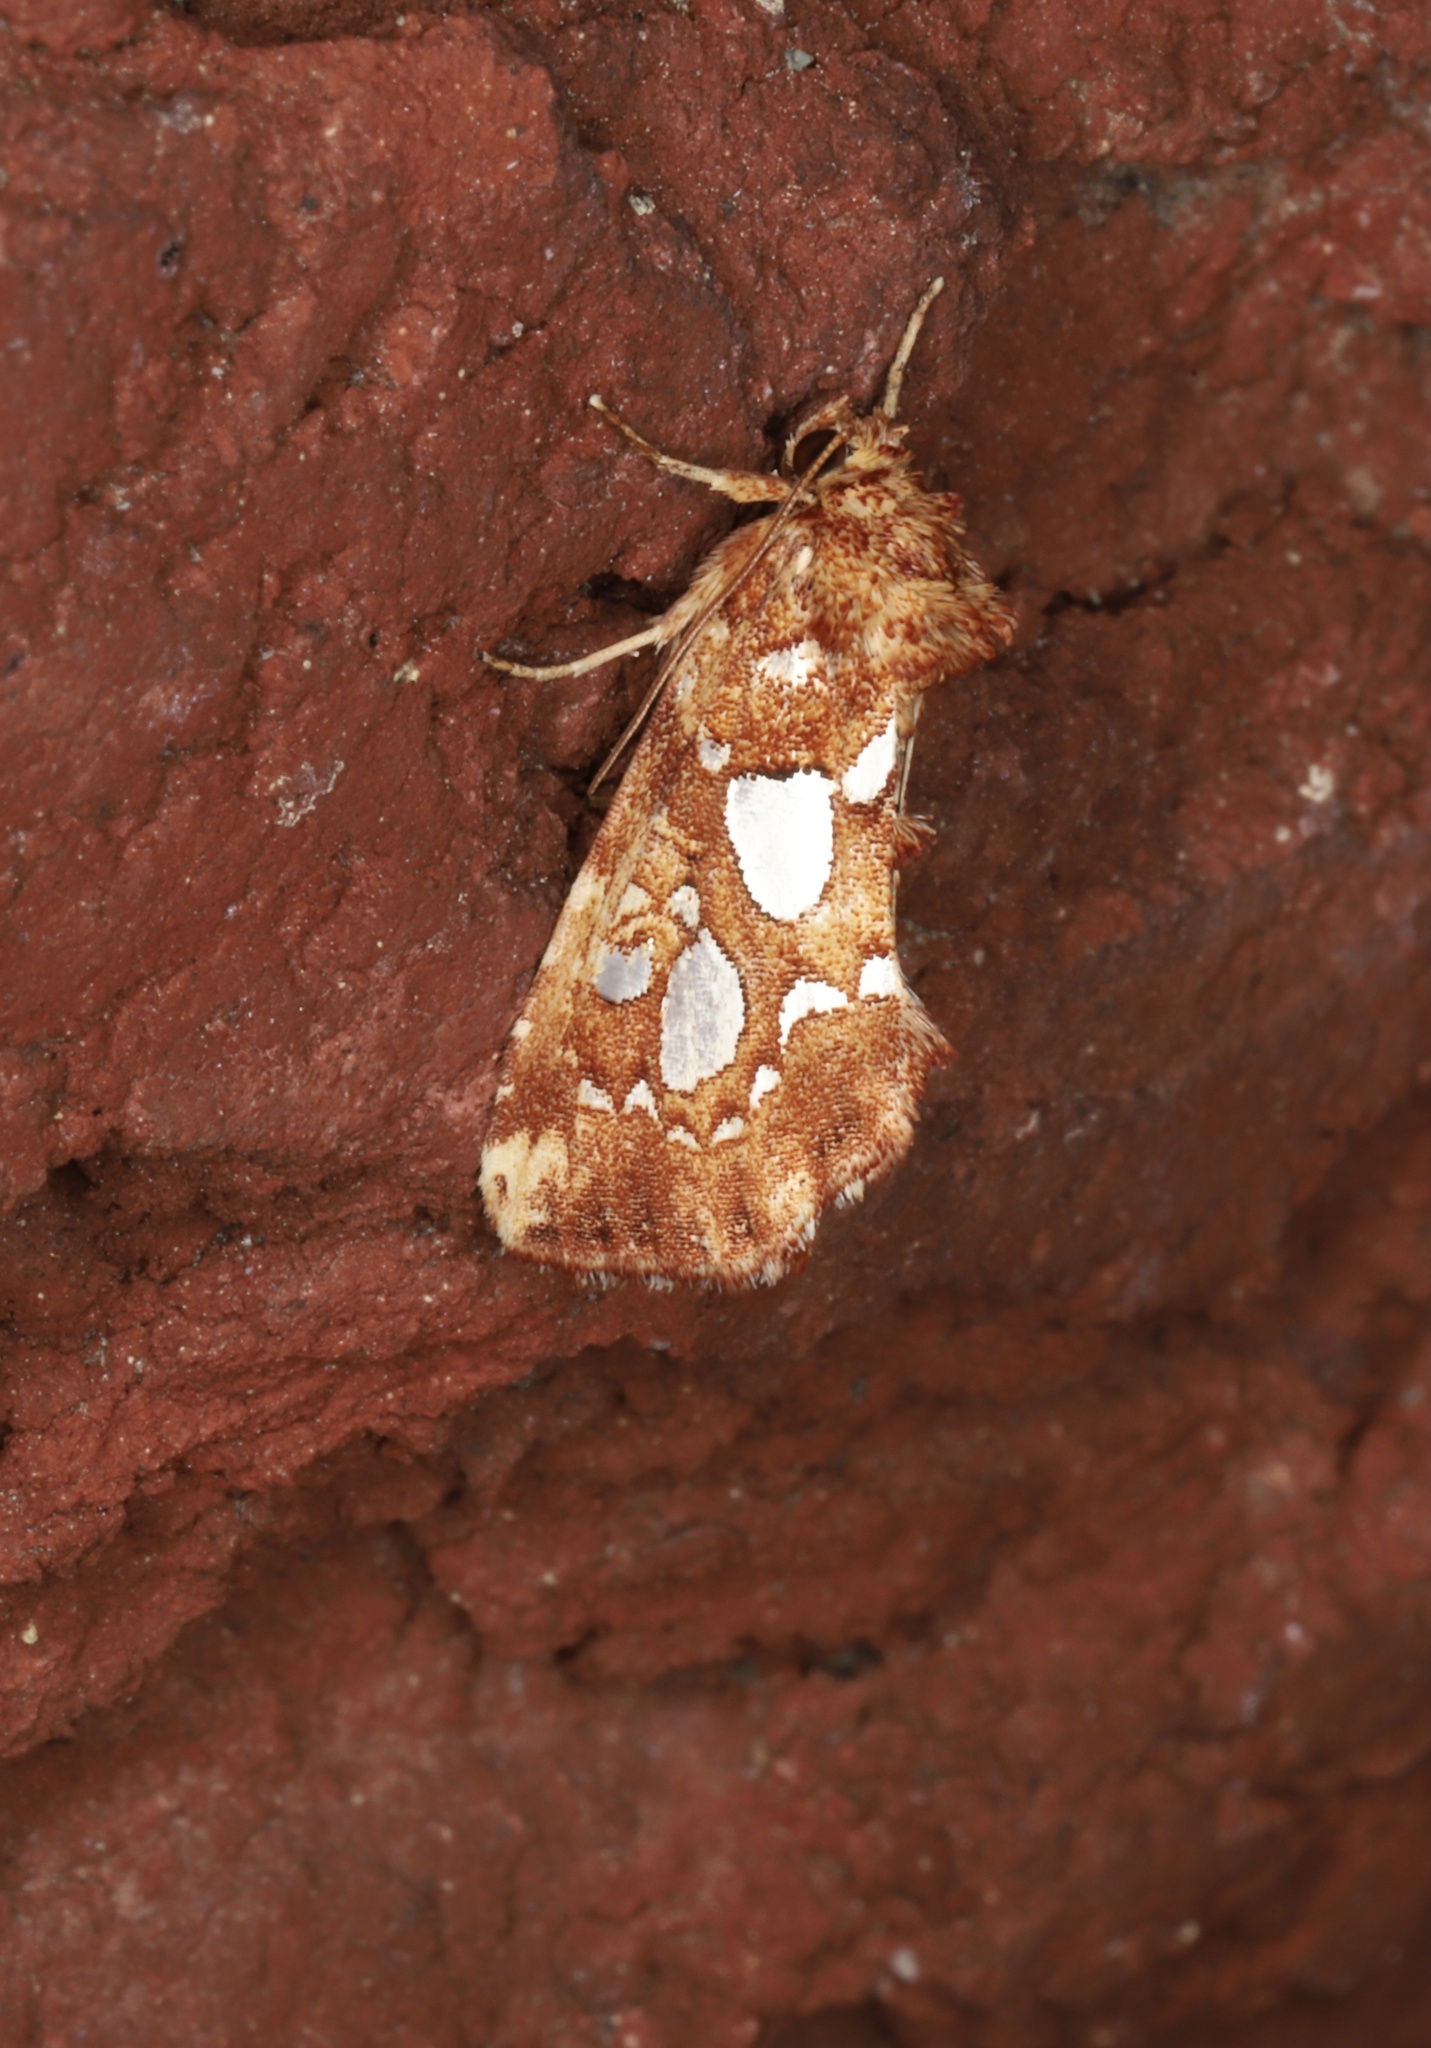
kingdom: Animalia
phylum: Arthropoda
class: Insecta
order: Lepidoptera
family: Noctuidae
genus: Callopistria
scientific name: Callopistria cordata
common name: Silver-spotted fern moth
